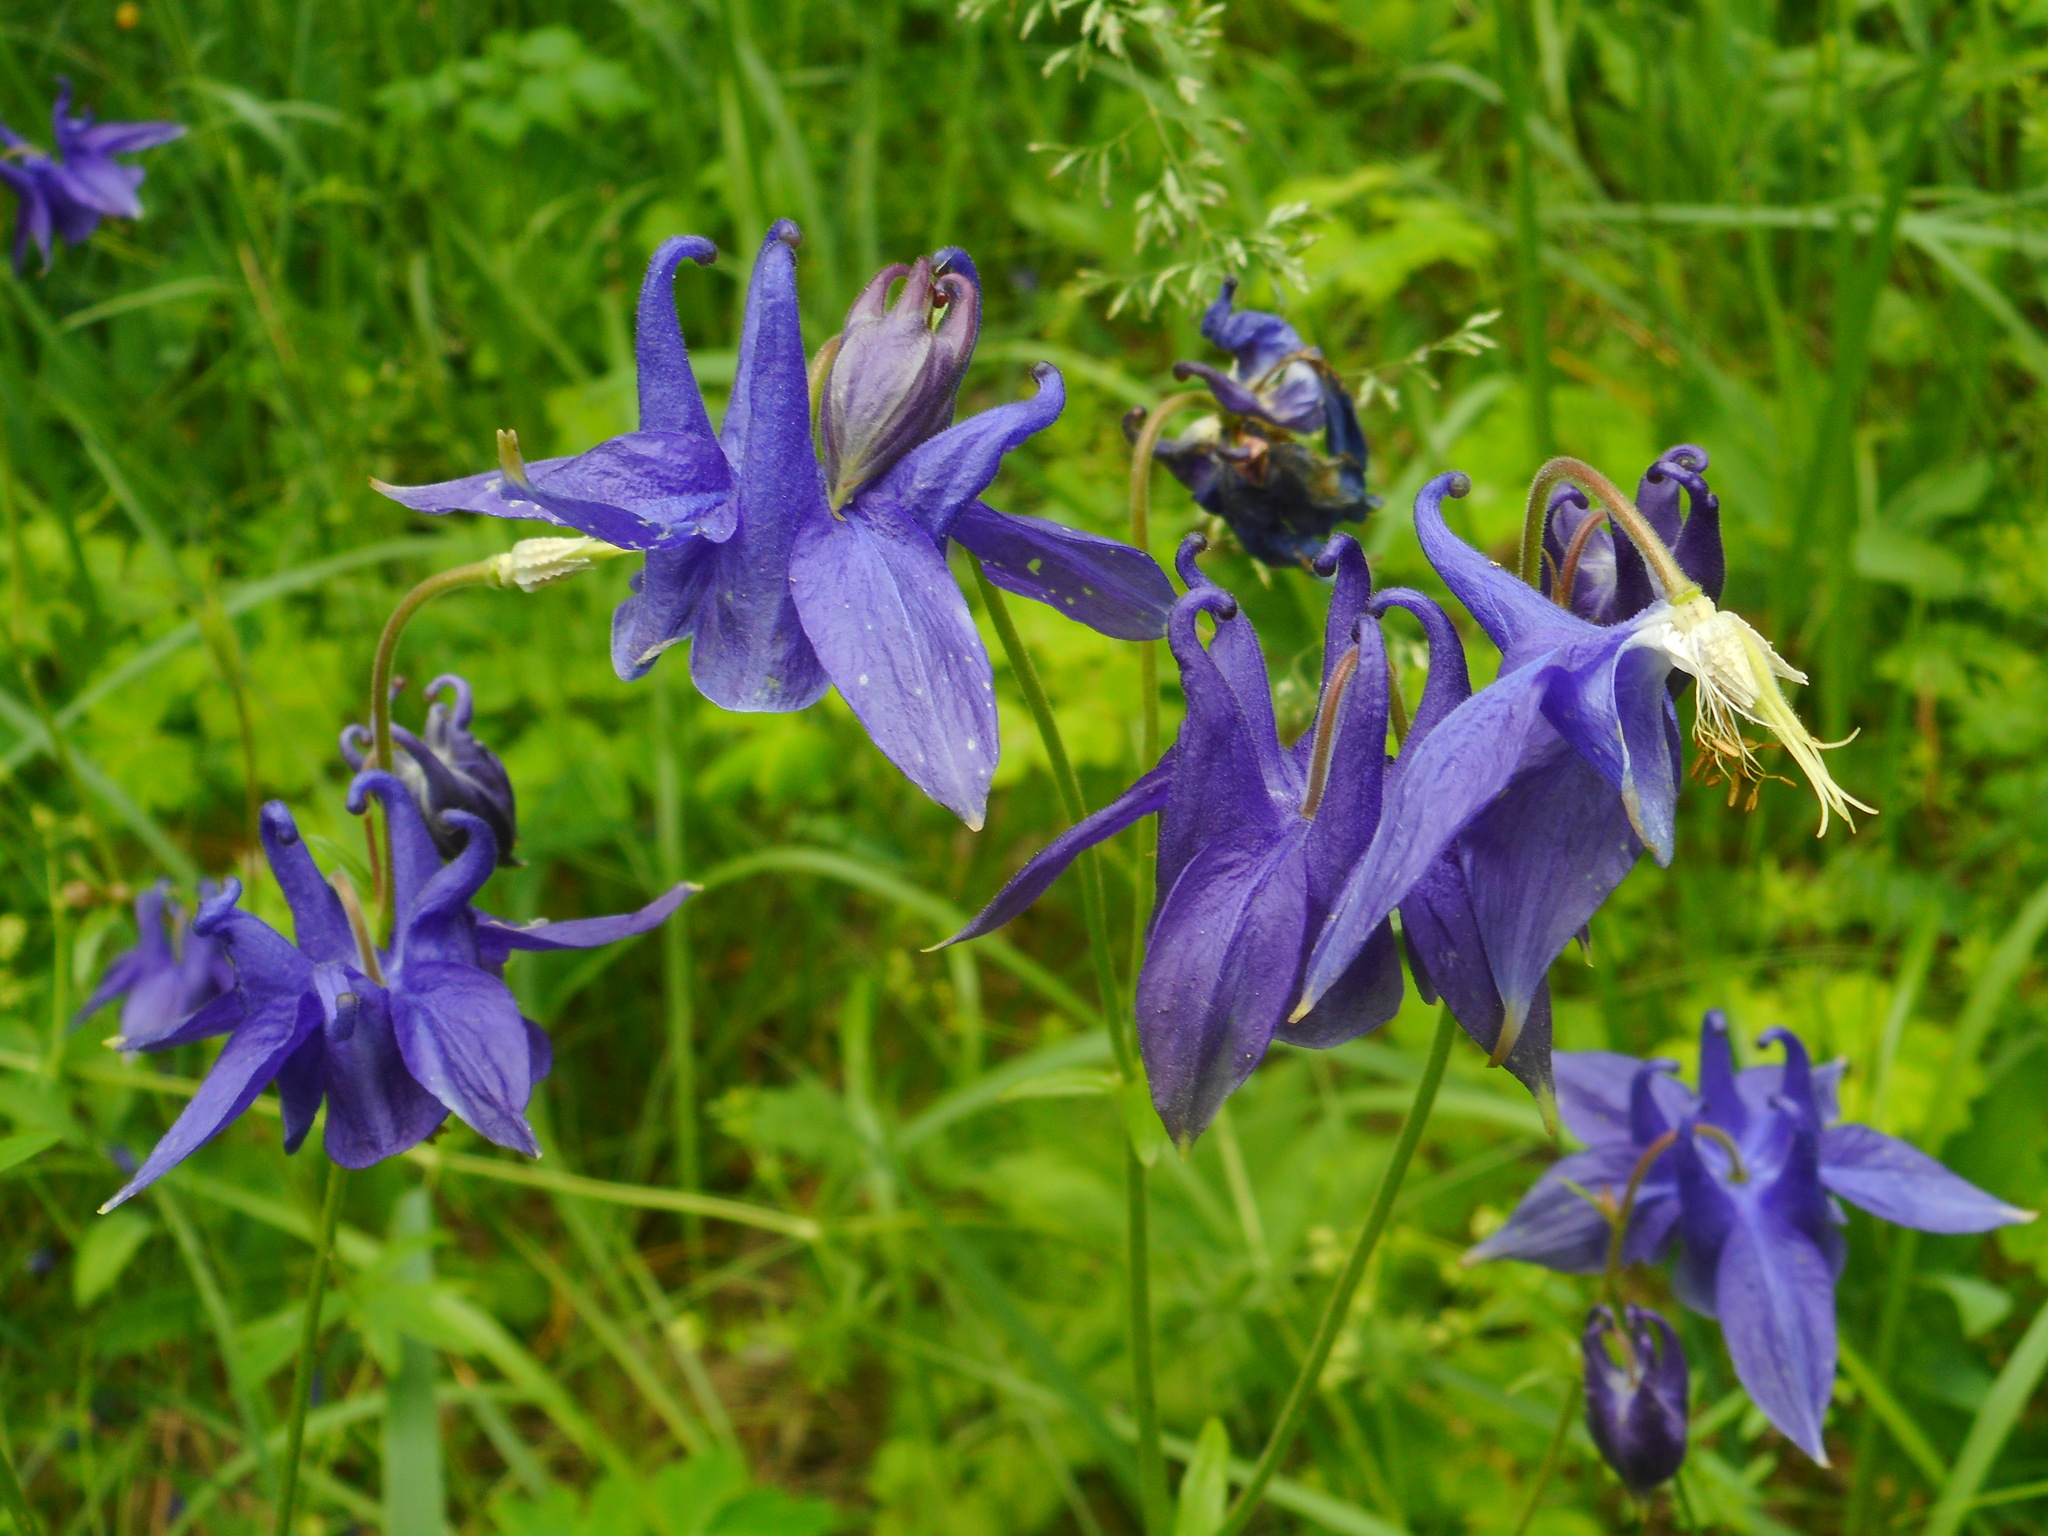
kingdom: Plantae
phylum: Tracheophyta
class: Magnoliopsida
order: Ranunculales
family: Ranunculaceae
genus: Aquilegia
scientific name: Aquilegia vulgaris
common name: Columbine
